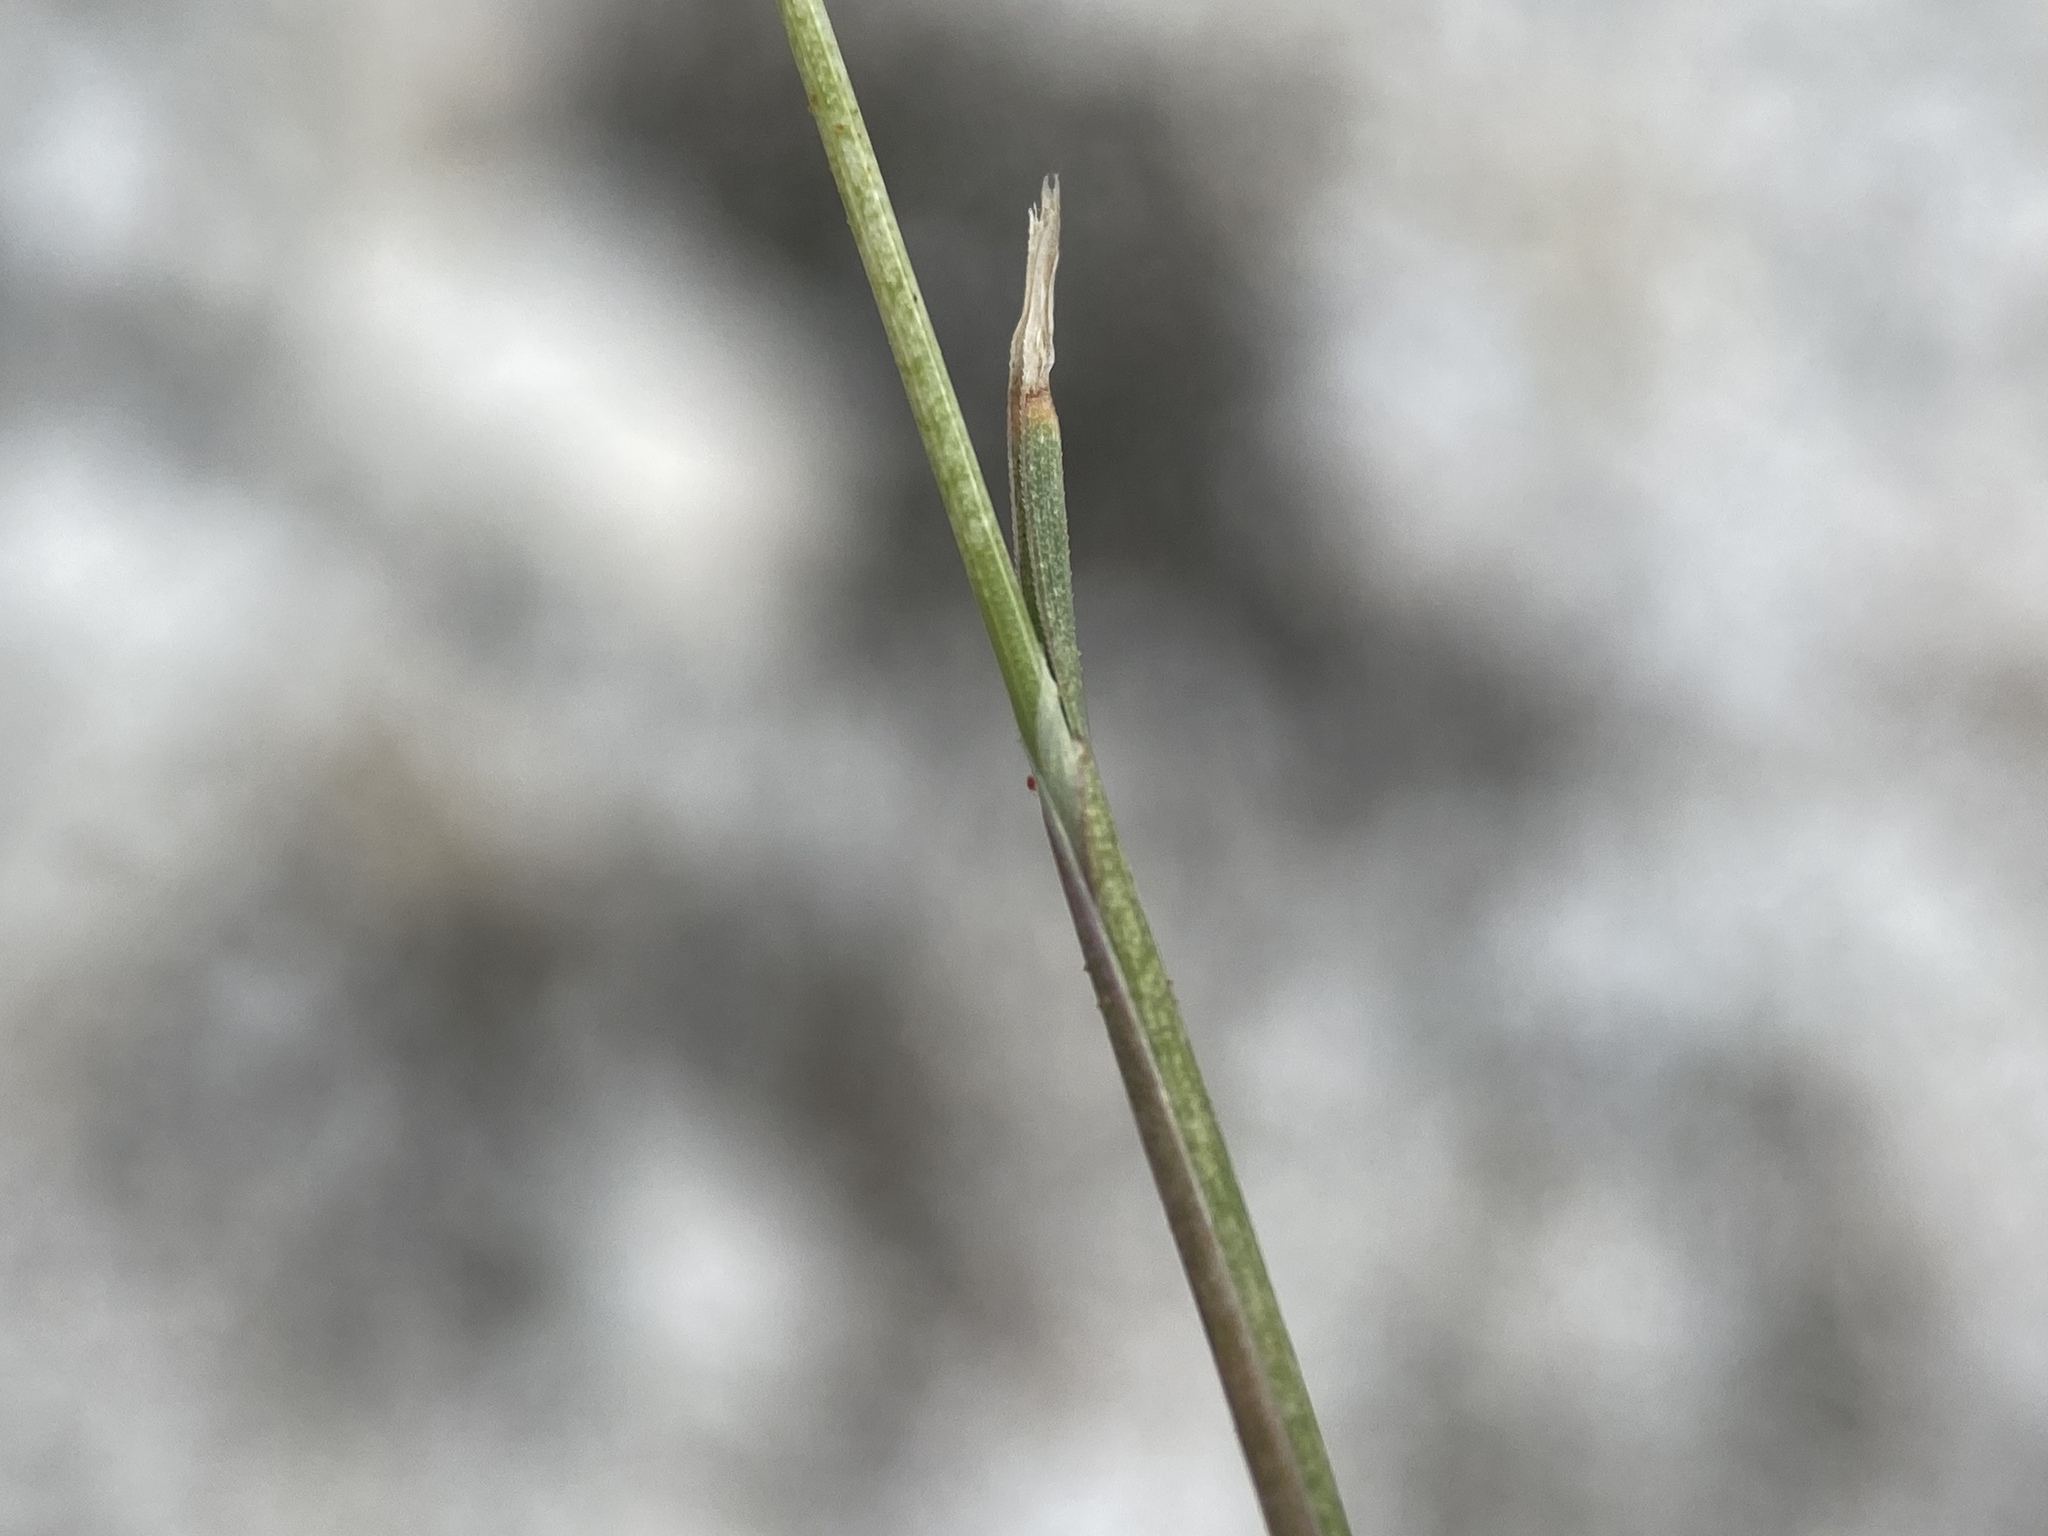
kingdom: Plantae
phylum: Tracheophyta
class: Liliopsida
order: Poales
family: Poaceae
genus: Poa
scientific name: Poa secunda
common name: Sandberg bluegrass
